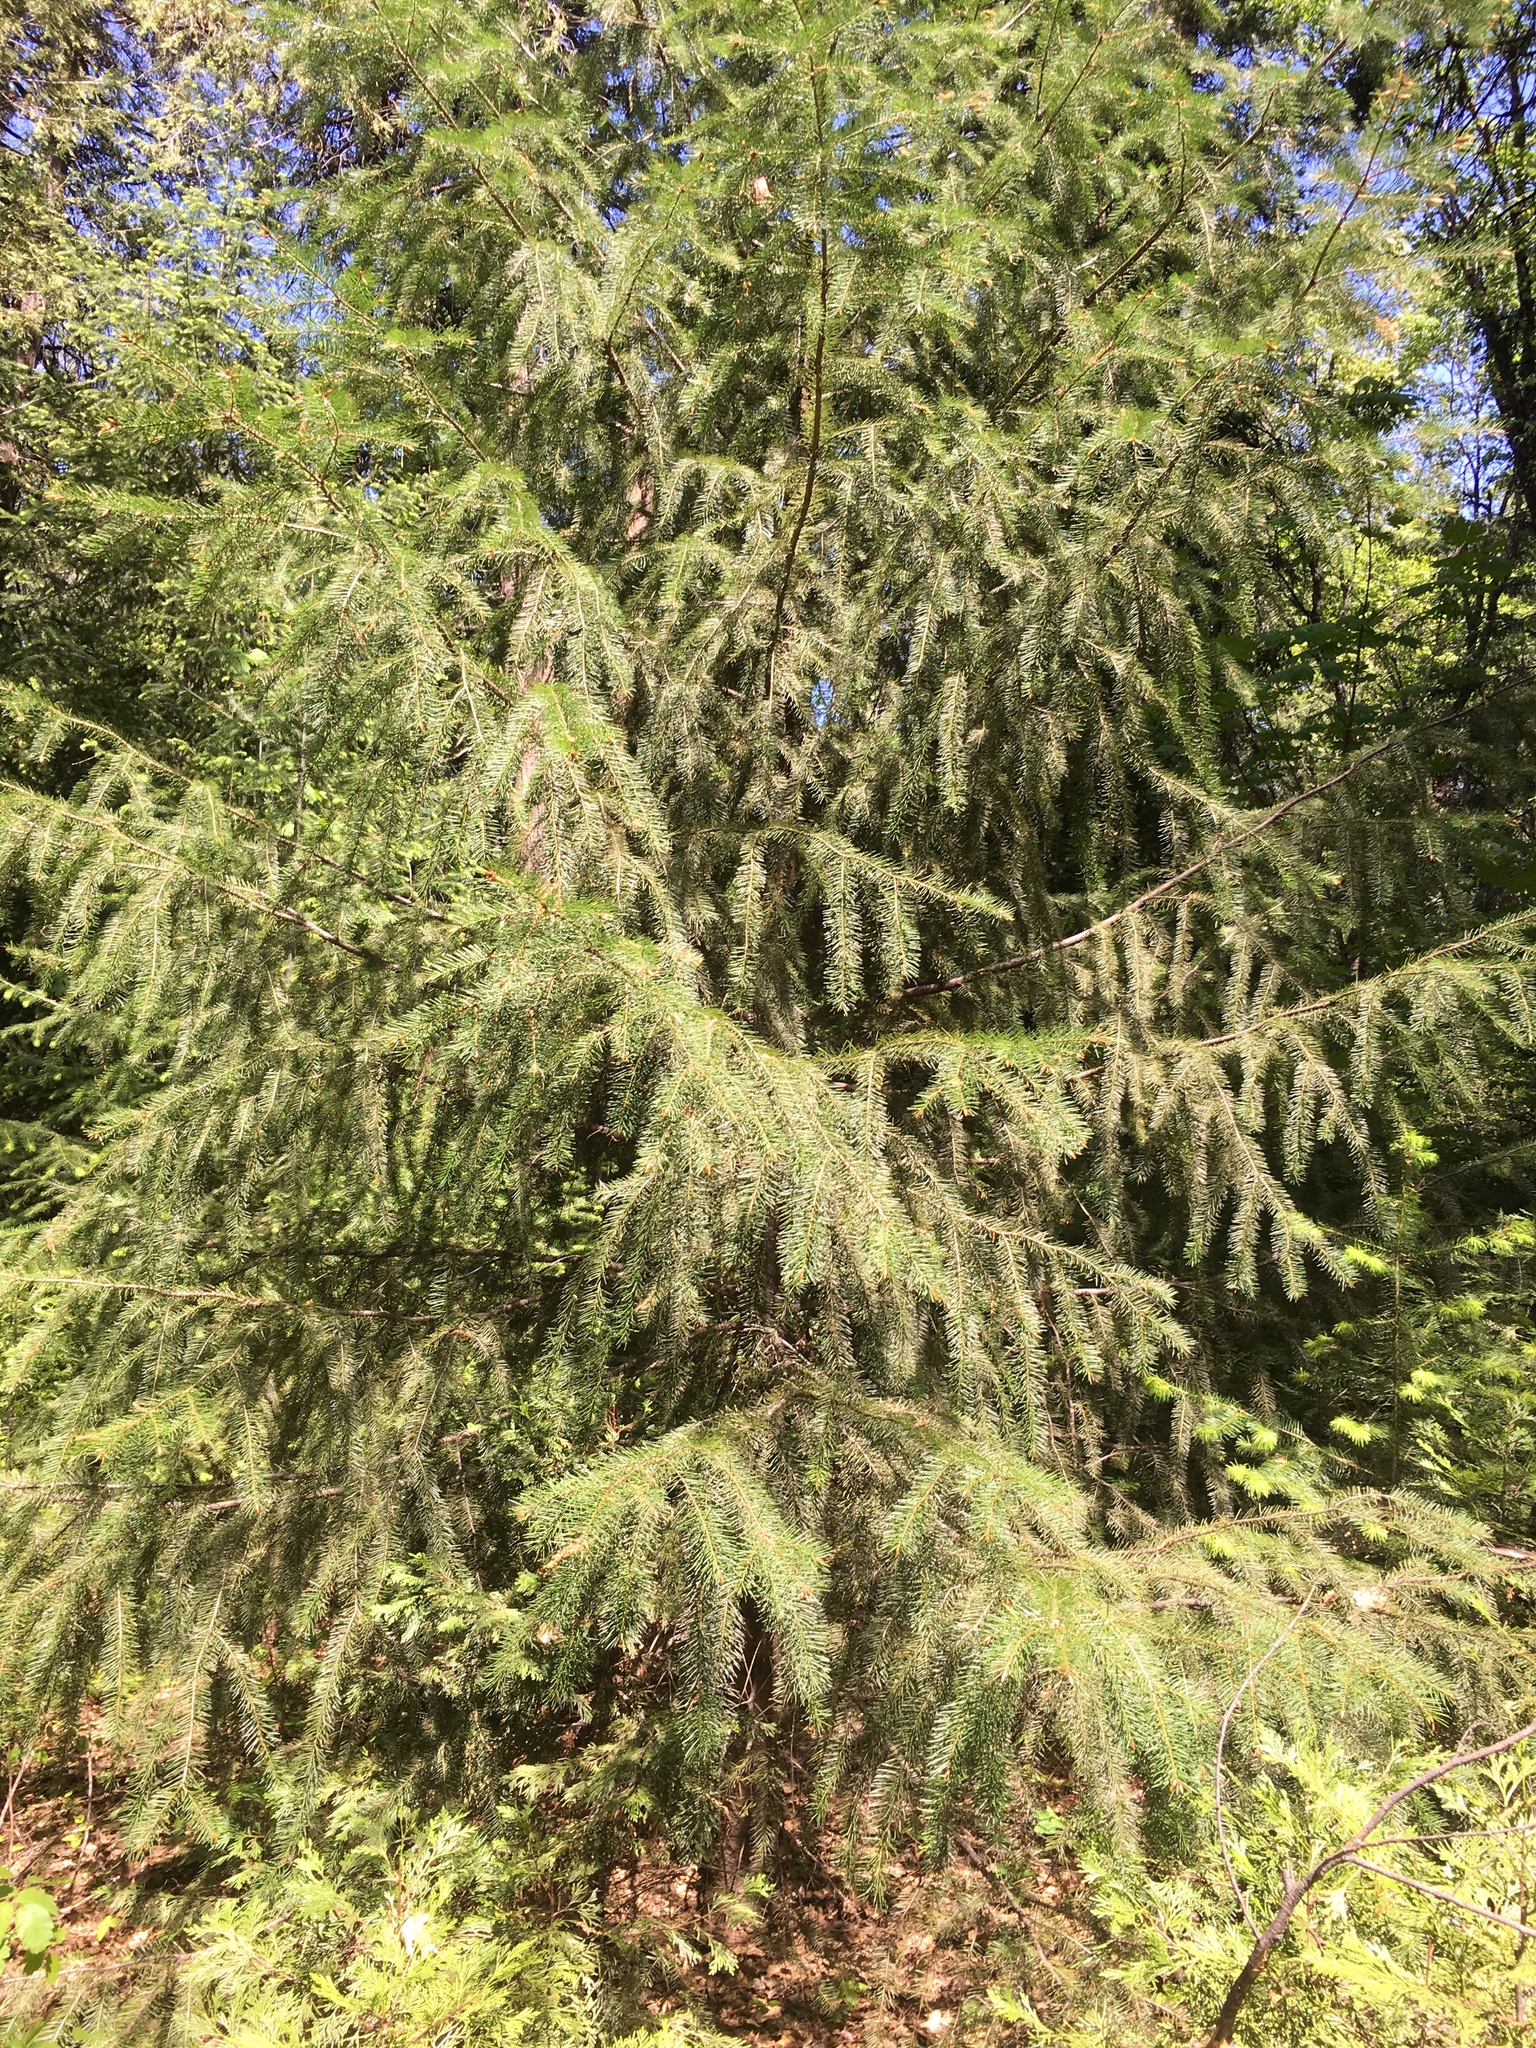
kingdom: Plantae
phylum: Tracheophyta
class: Pinopsida
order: Pinales
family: Pinaceae
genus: Pseudotsuga
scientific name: Pseudotsuga menziesii
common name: Douglas fir
